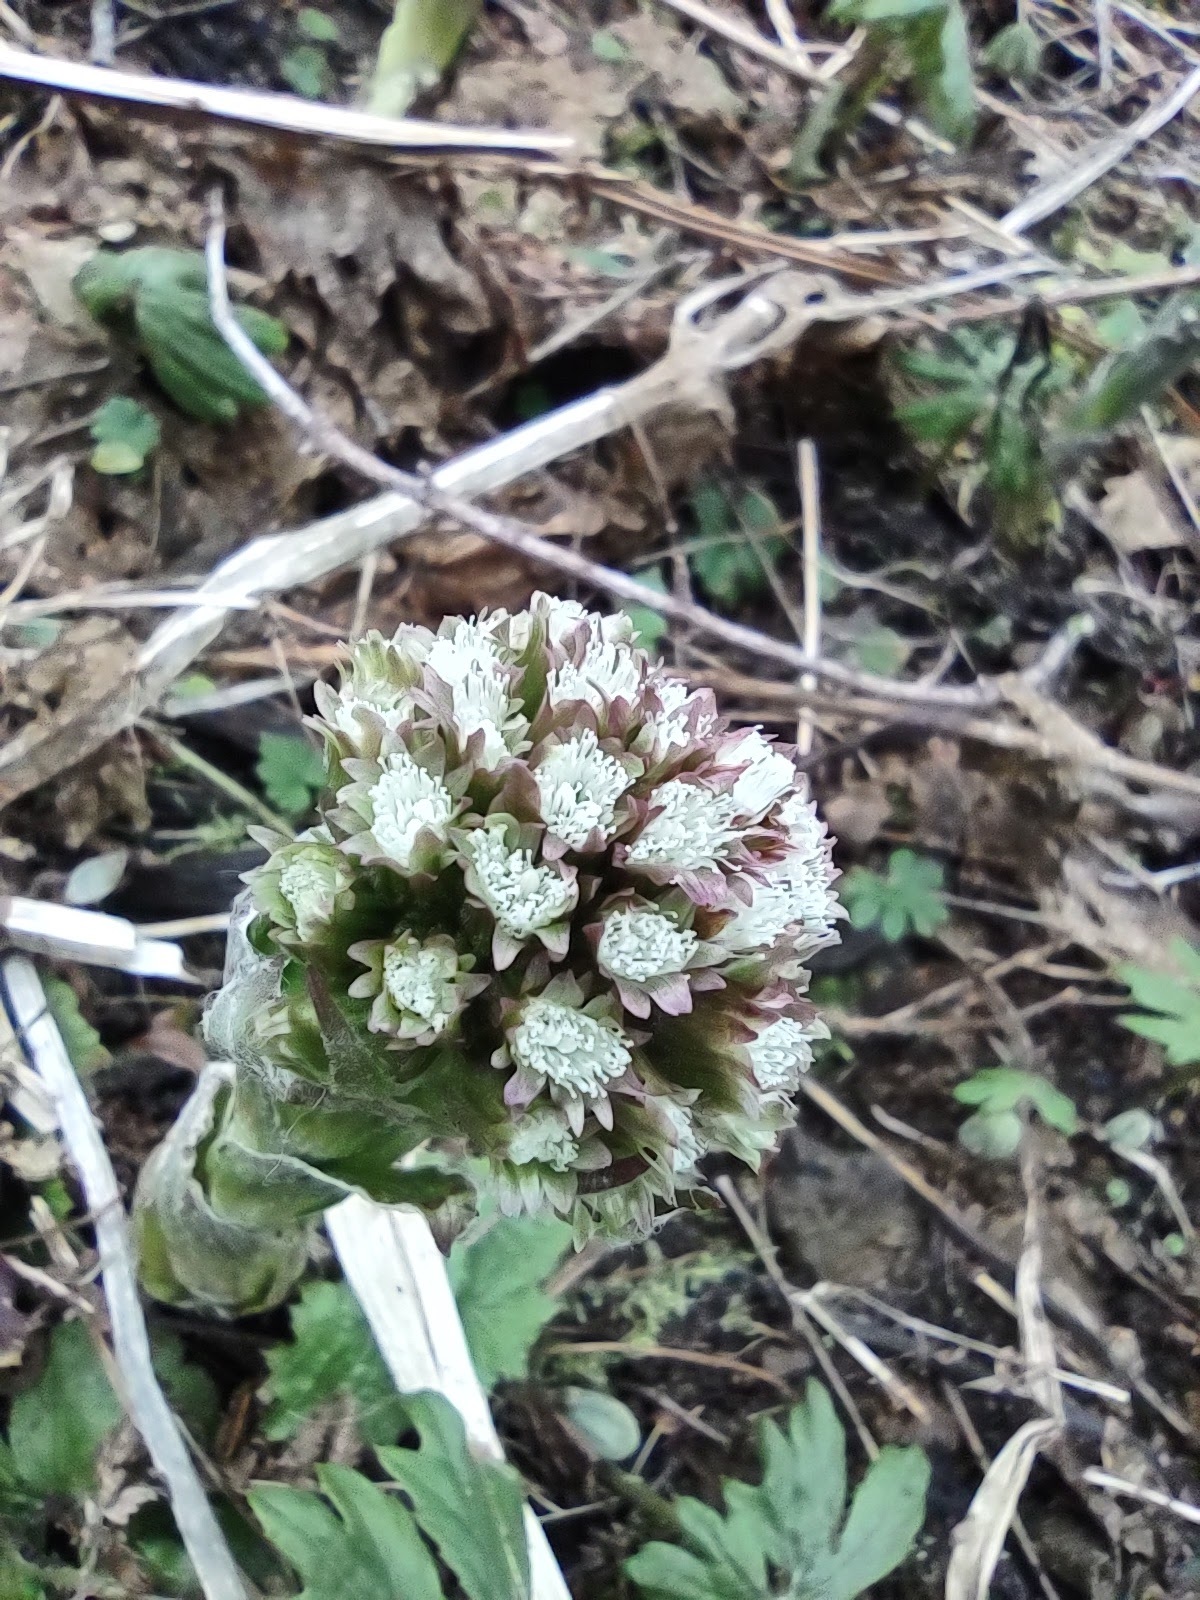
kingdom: Plantae
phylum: Tracheophyta
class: Magnoliopsida
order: Asterales
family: Asteraceae
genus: Petasites
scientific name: Petasites frigidus
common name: Arctic butterbur
